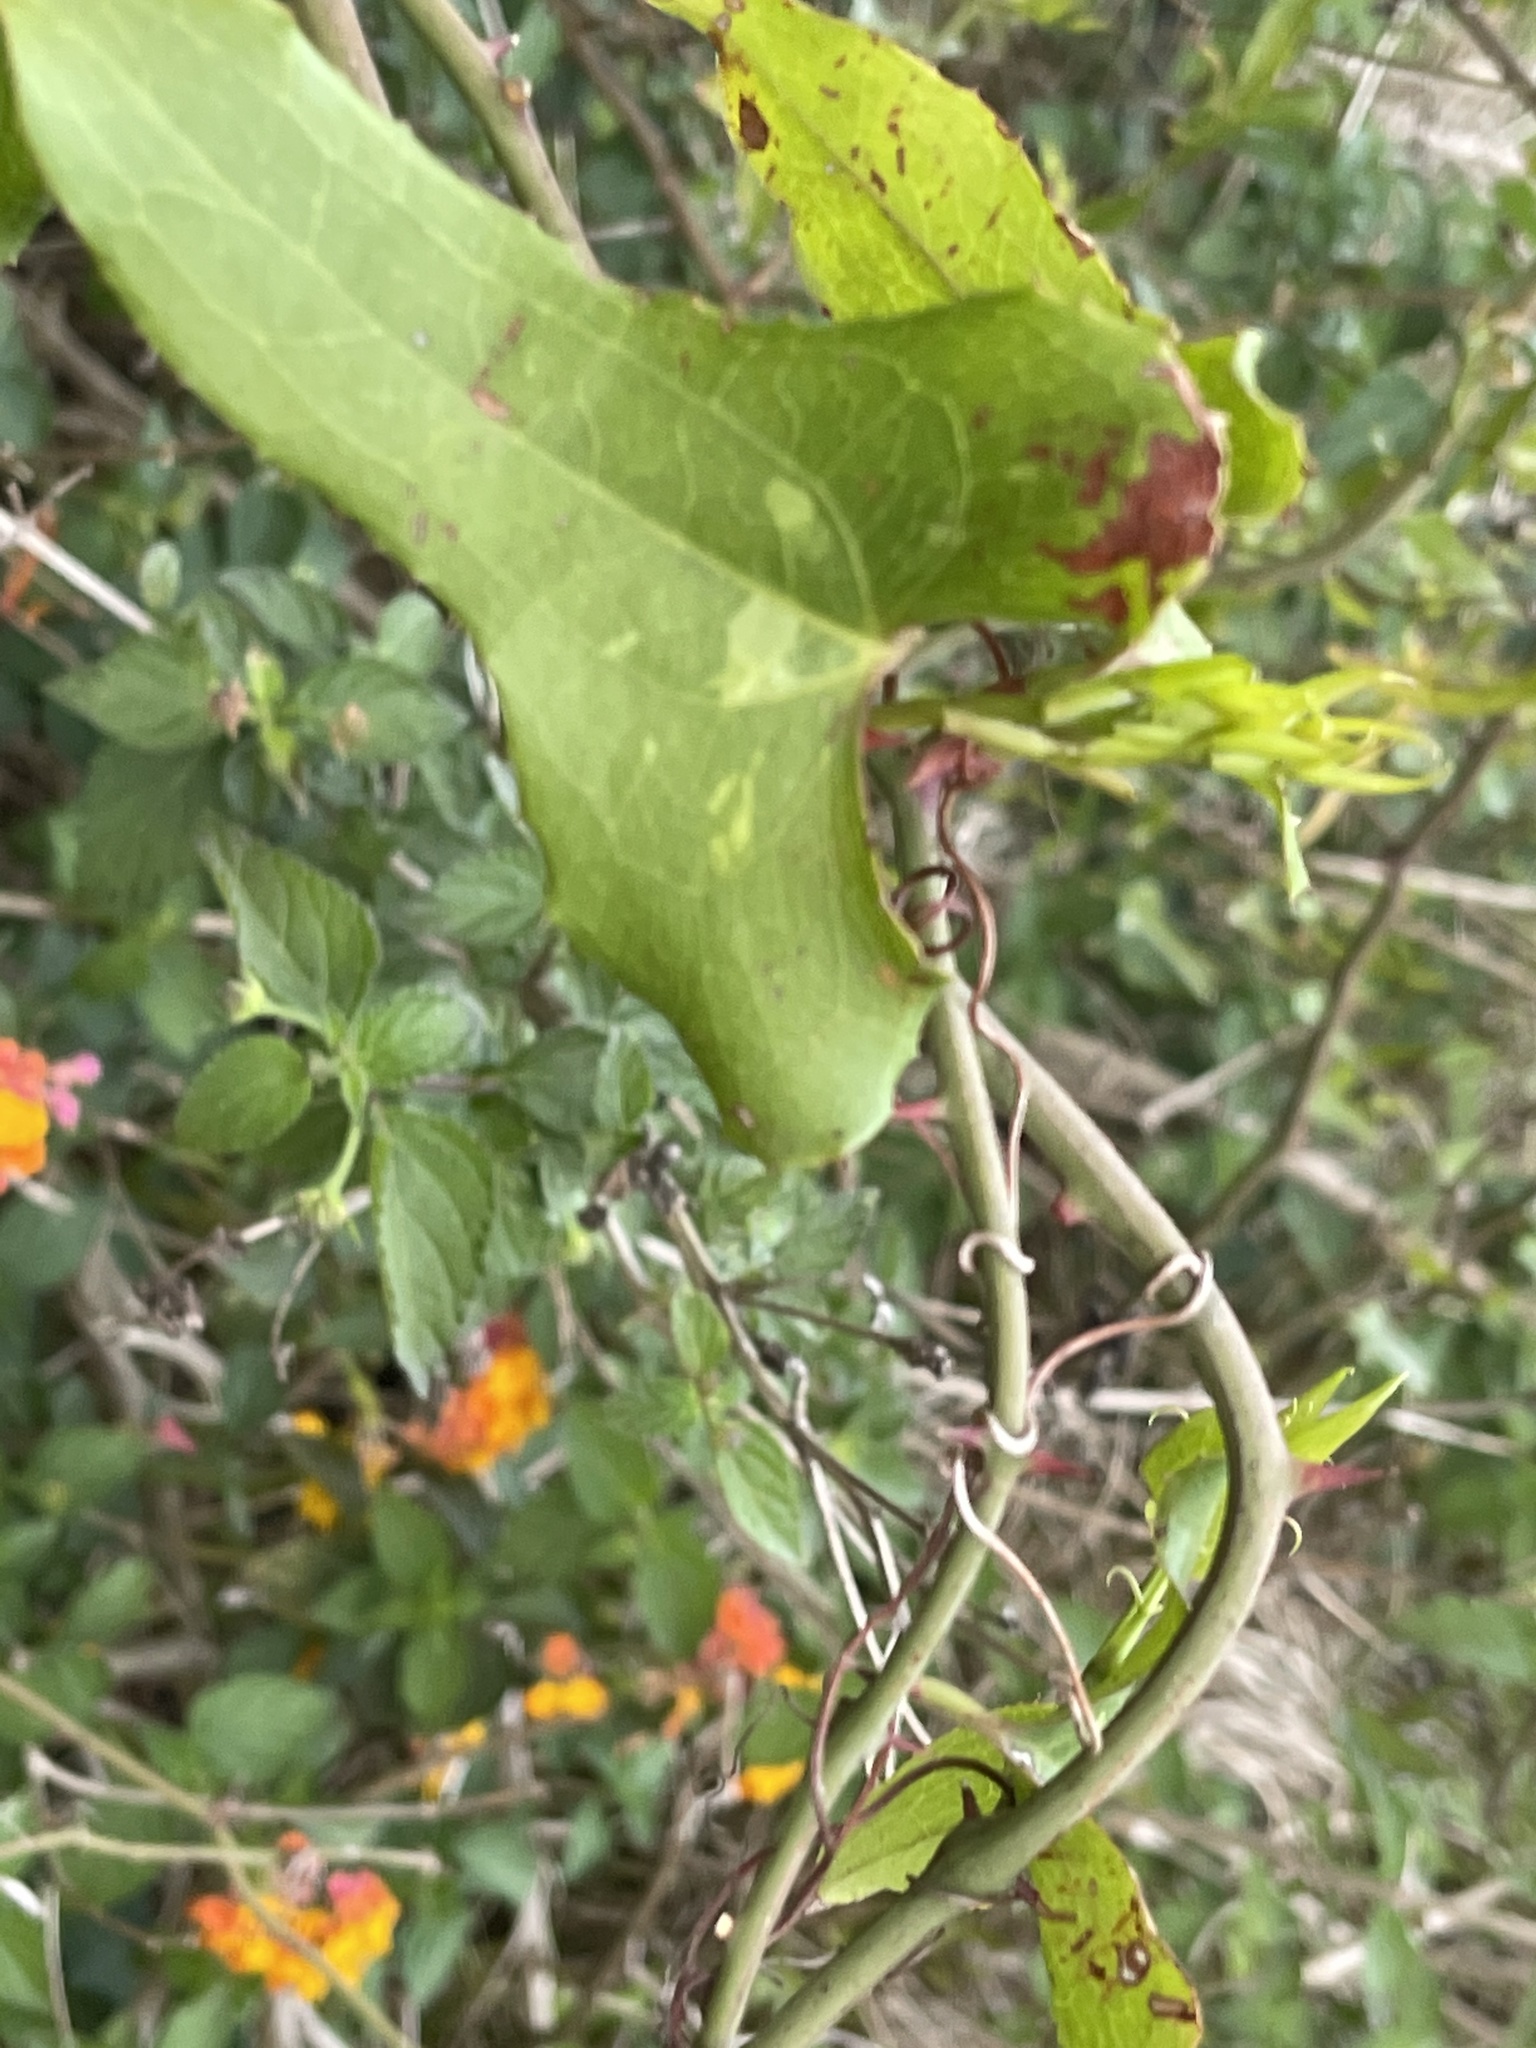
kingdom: Plantae
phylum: Tracheophyta
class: Liliopsida
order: Liliales
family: Smilacaceae
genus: Smilax
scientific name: Smilax bona-nox
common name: Catbrier
